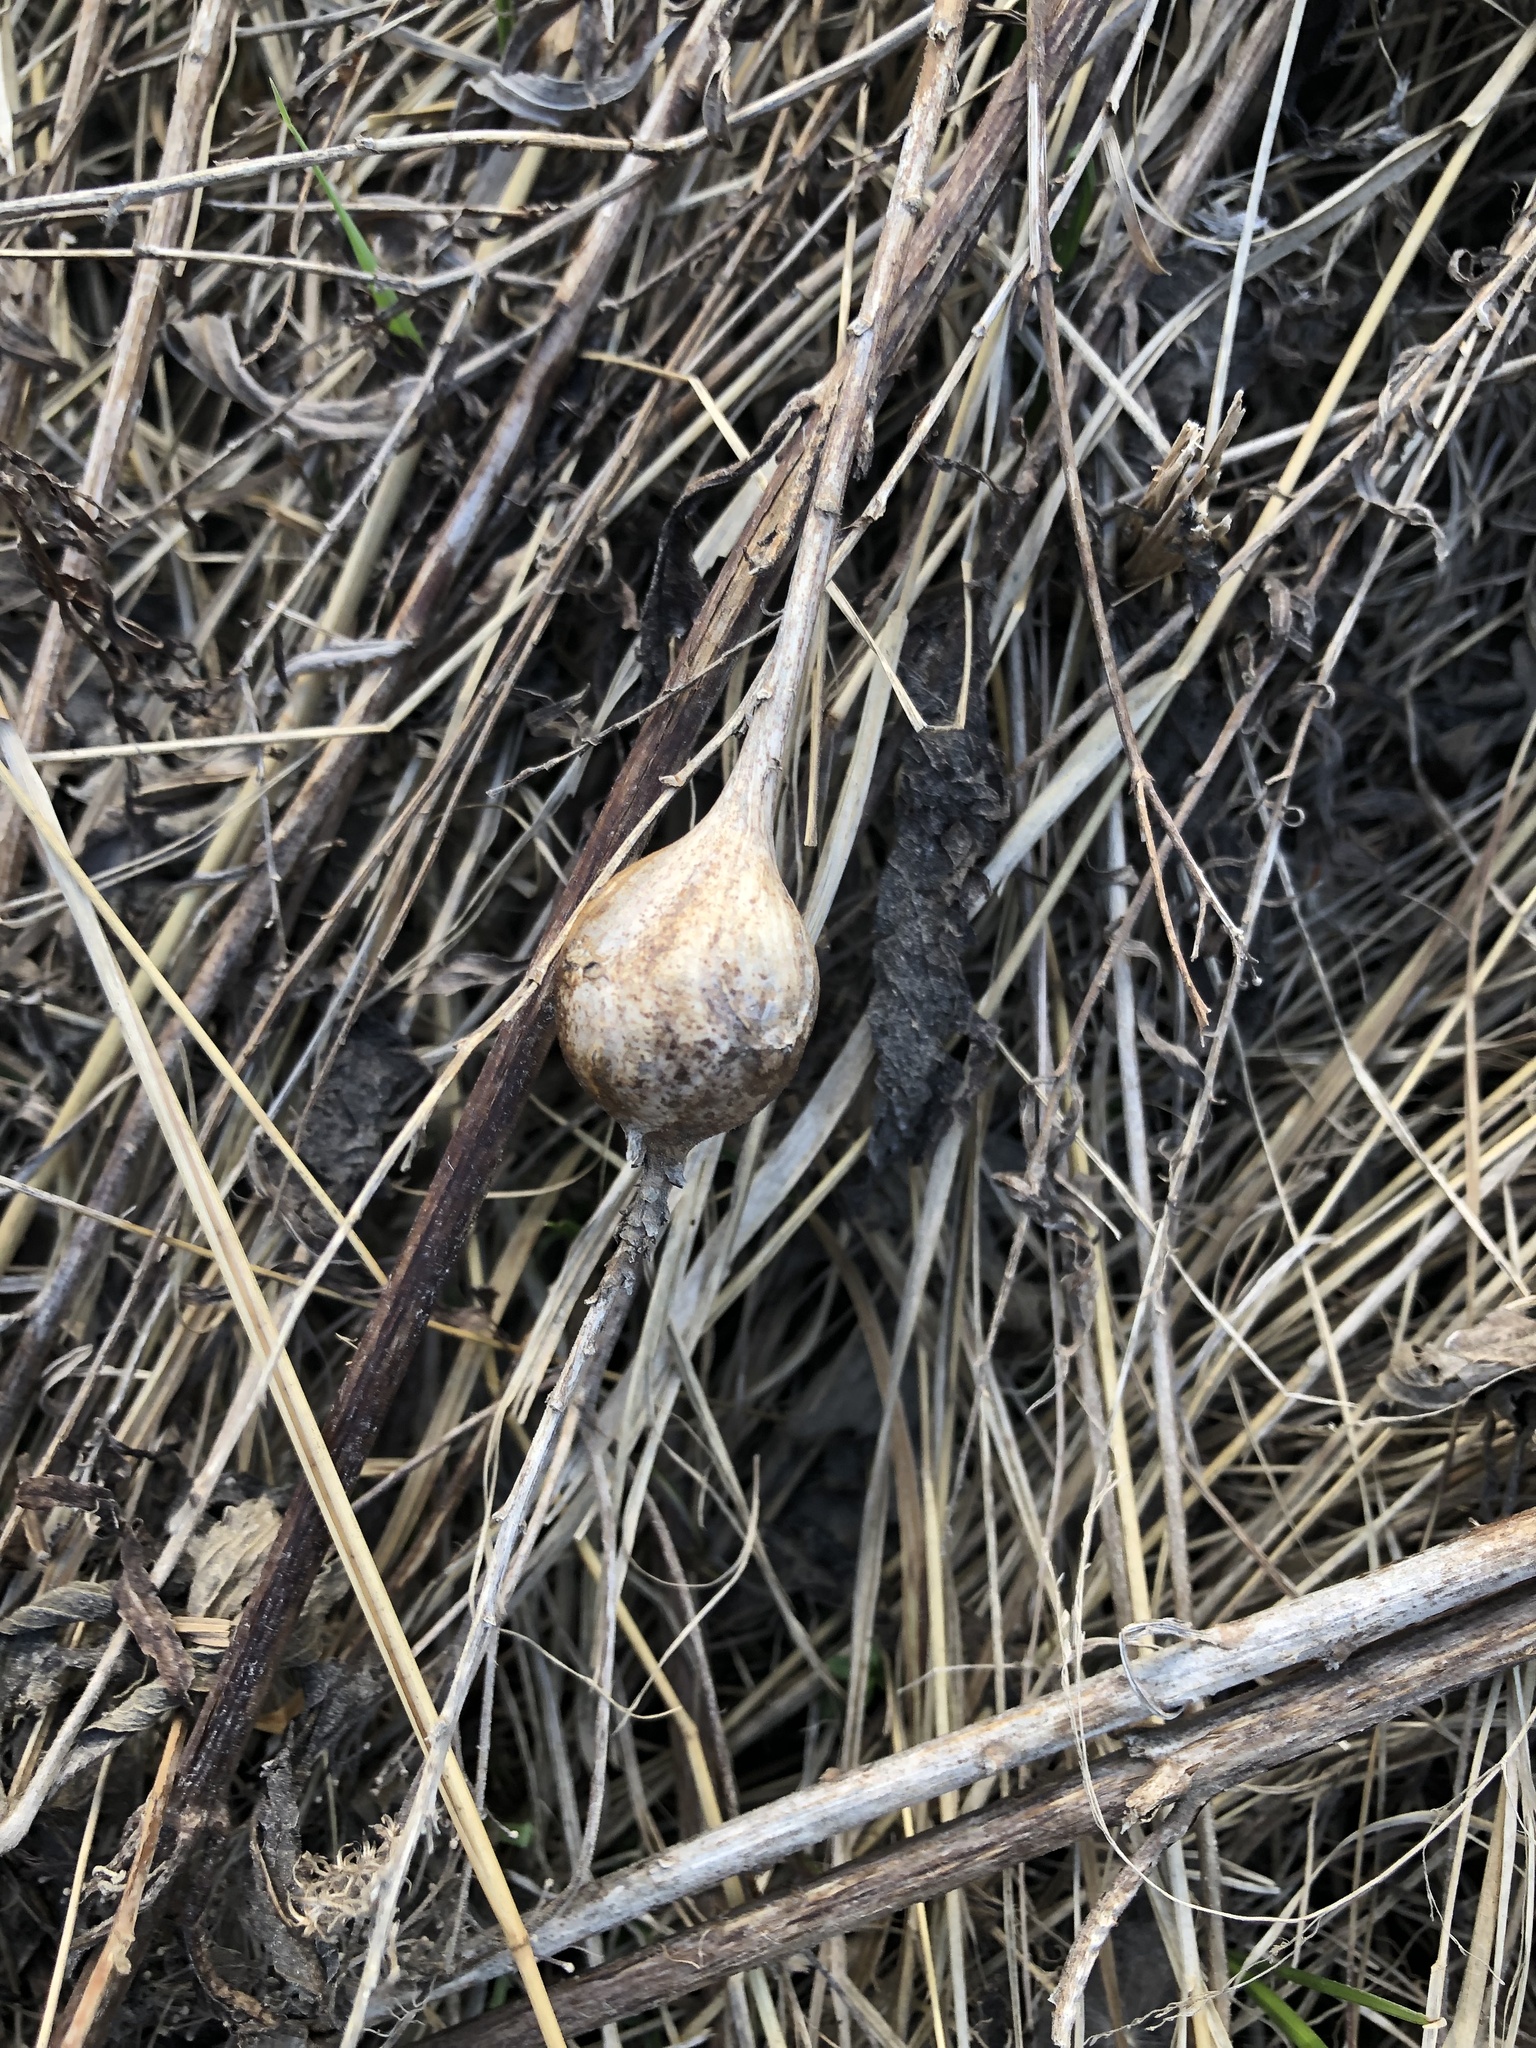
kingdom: Animalia
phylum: Arthropoda
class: Insecta
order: Diptera
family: Tephritidae
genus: Eurosta
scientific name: Eurosta solidaginis
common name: Goldenrod gall fly
